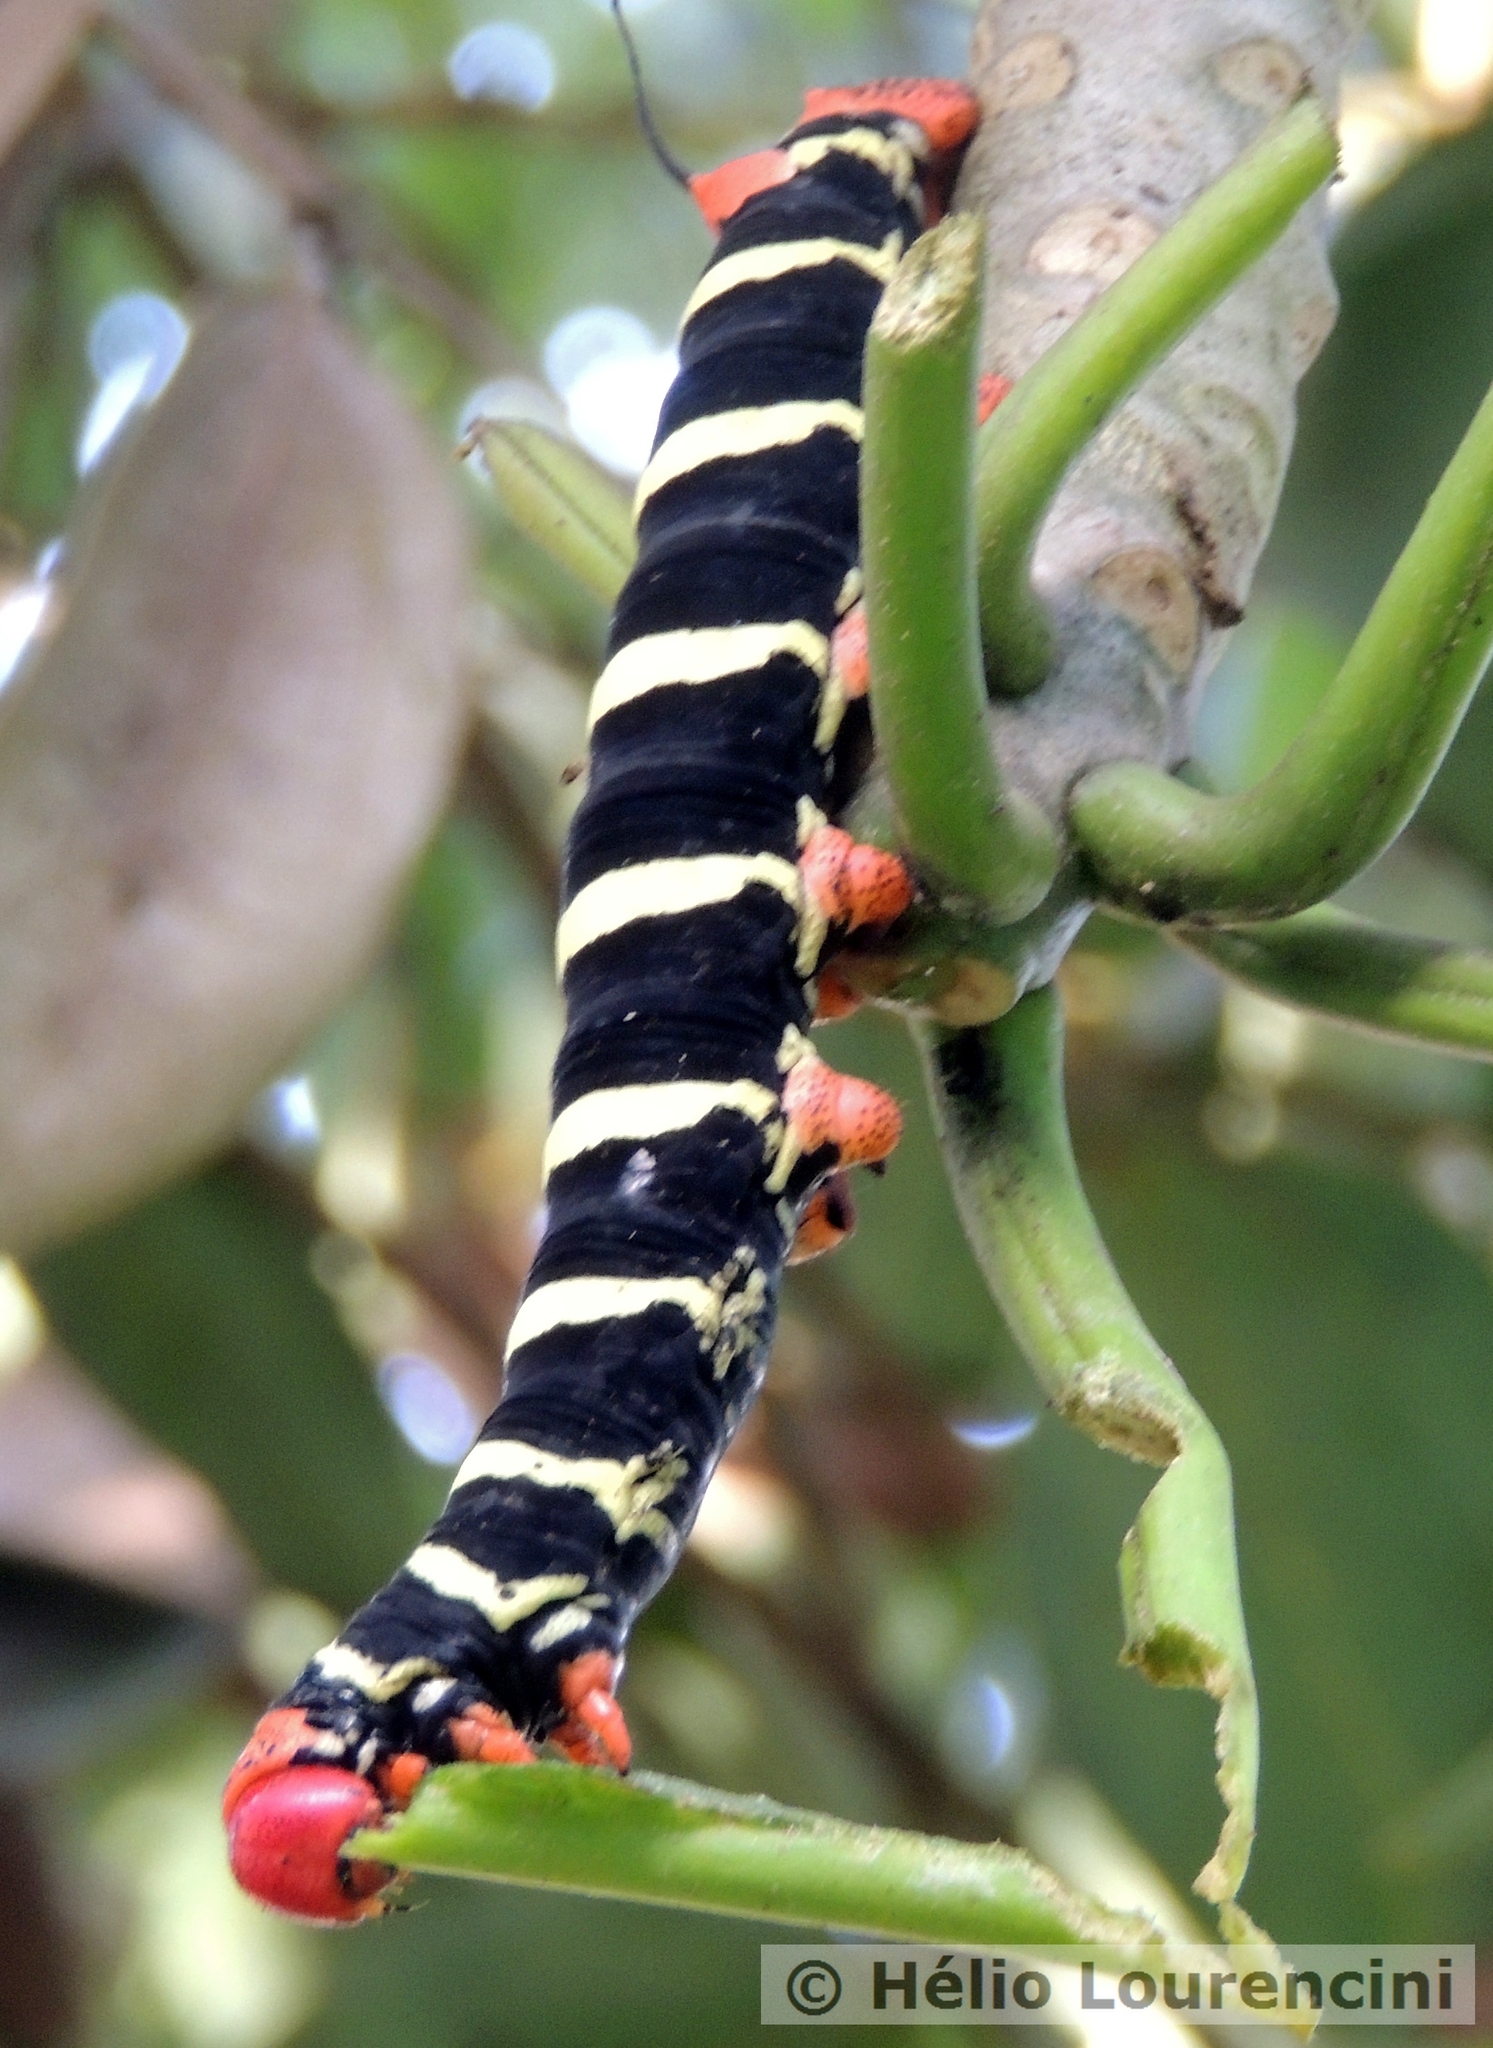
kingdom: Animalia
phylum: Arthropoda
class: Insecta
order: Lepidoptera
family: Sphingidae
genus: Pseudosphinx
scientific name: Pseudosphinx tetrio
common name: Tetrio sphinx
